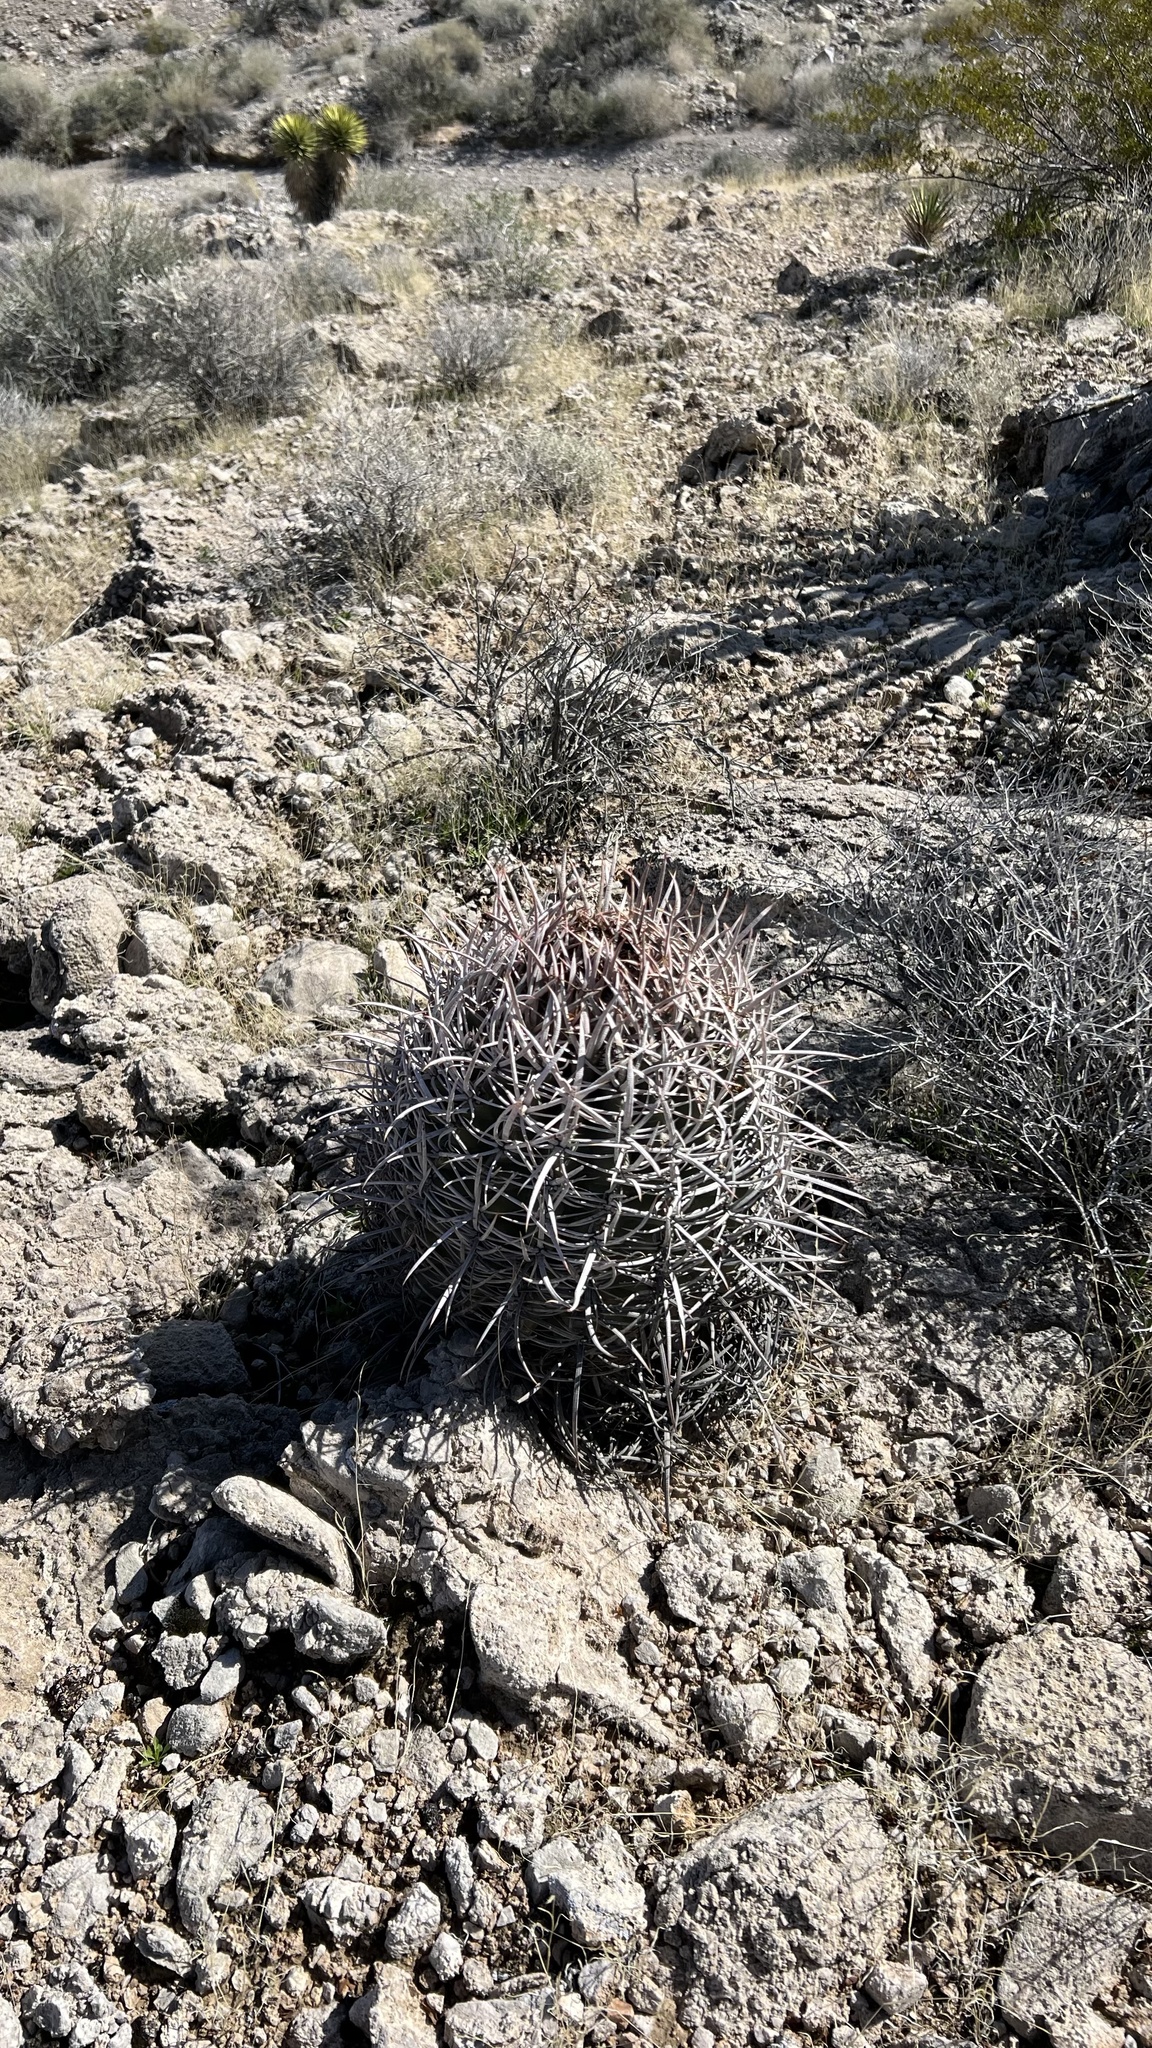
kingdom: Plantae
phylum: Tracheophyta
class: Magnoliopsida
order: Caryophyllales
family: Cactaceae
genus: Echinocactus
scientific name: Echinocactus polycephalus
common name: Cottontop cactus
